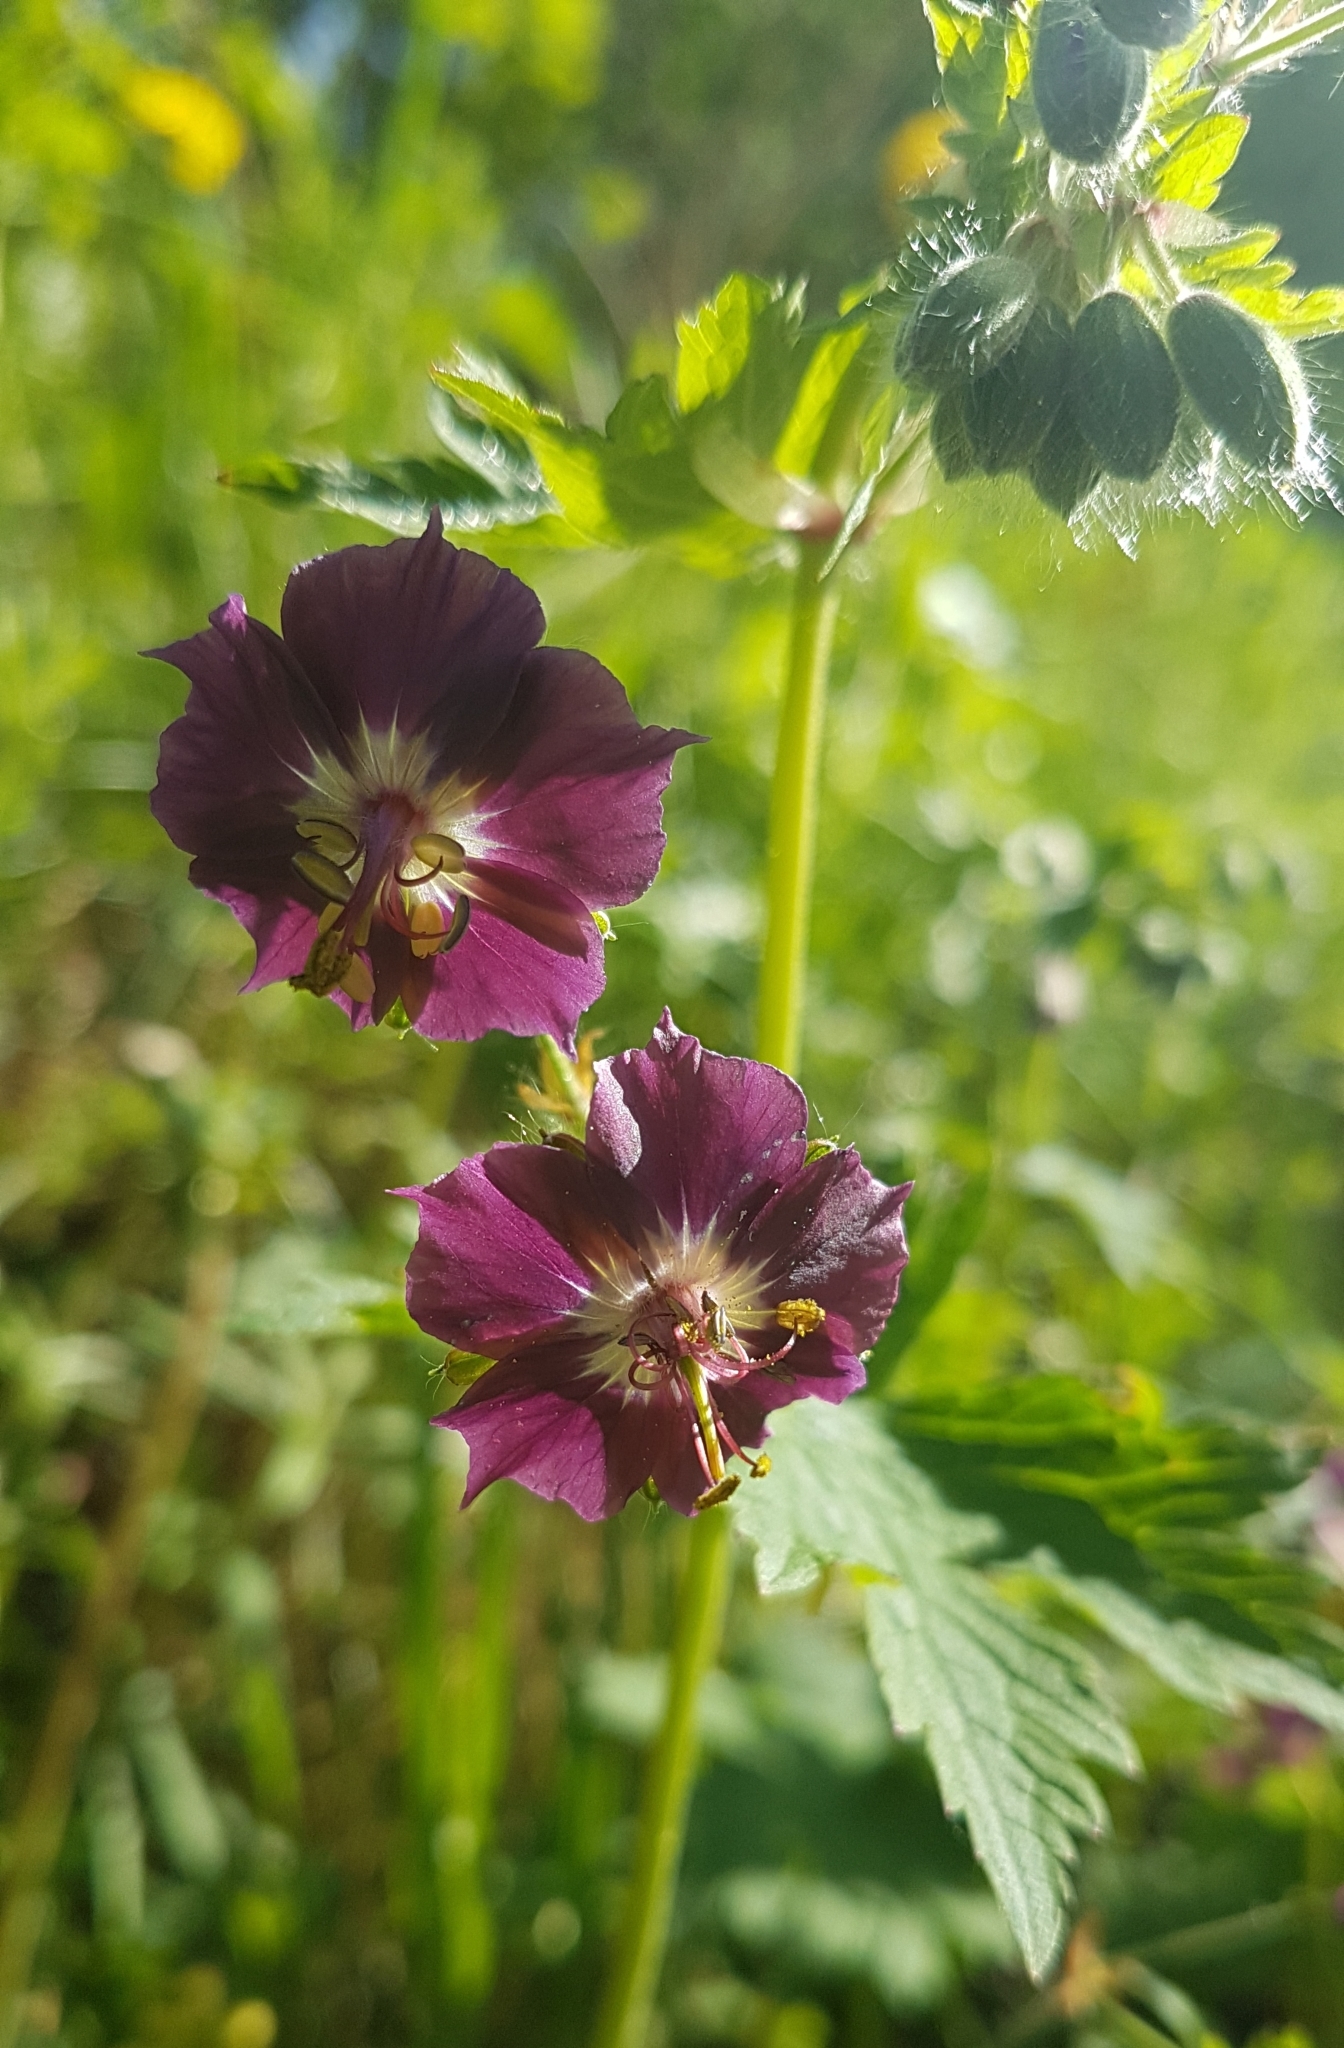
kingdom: Plantae
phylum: Tracheophyta
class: Magnoliopsida
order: Geraniales
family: Geraniaceae
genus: Geranium
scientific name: Geranium phaeum
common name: Dusky crane's-bill
